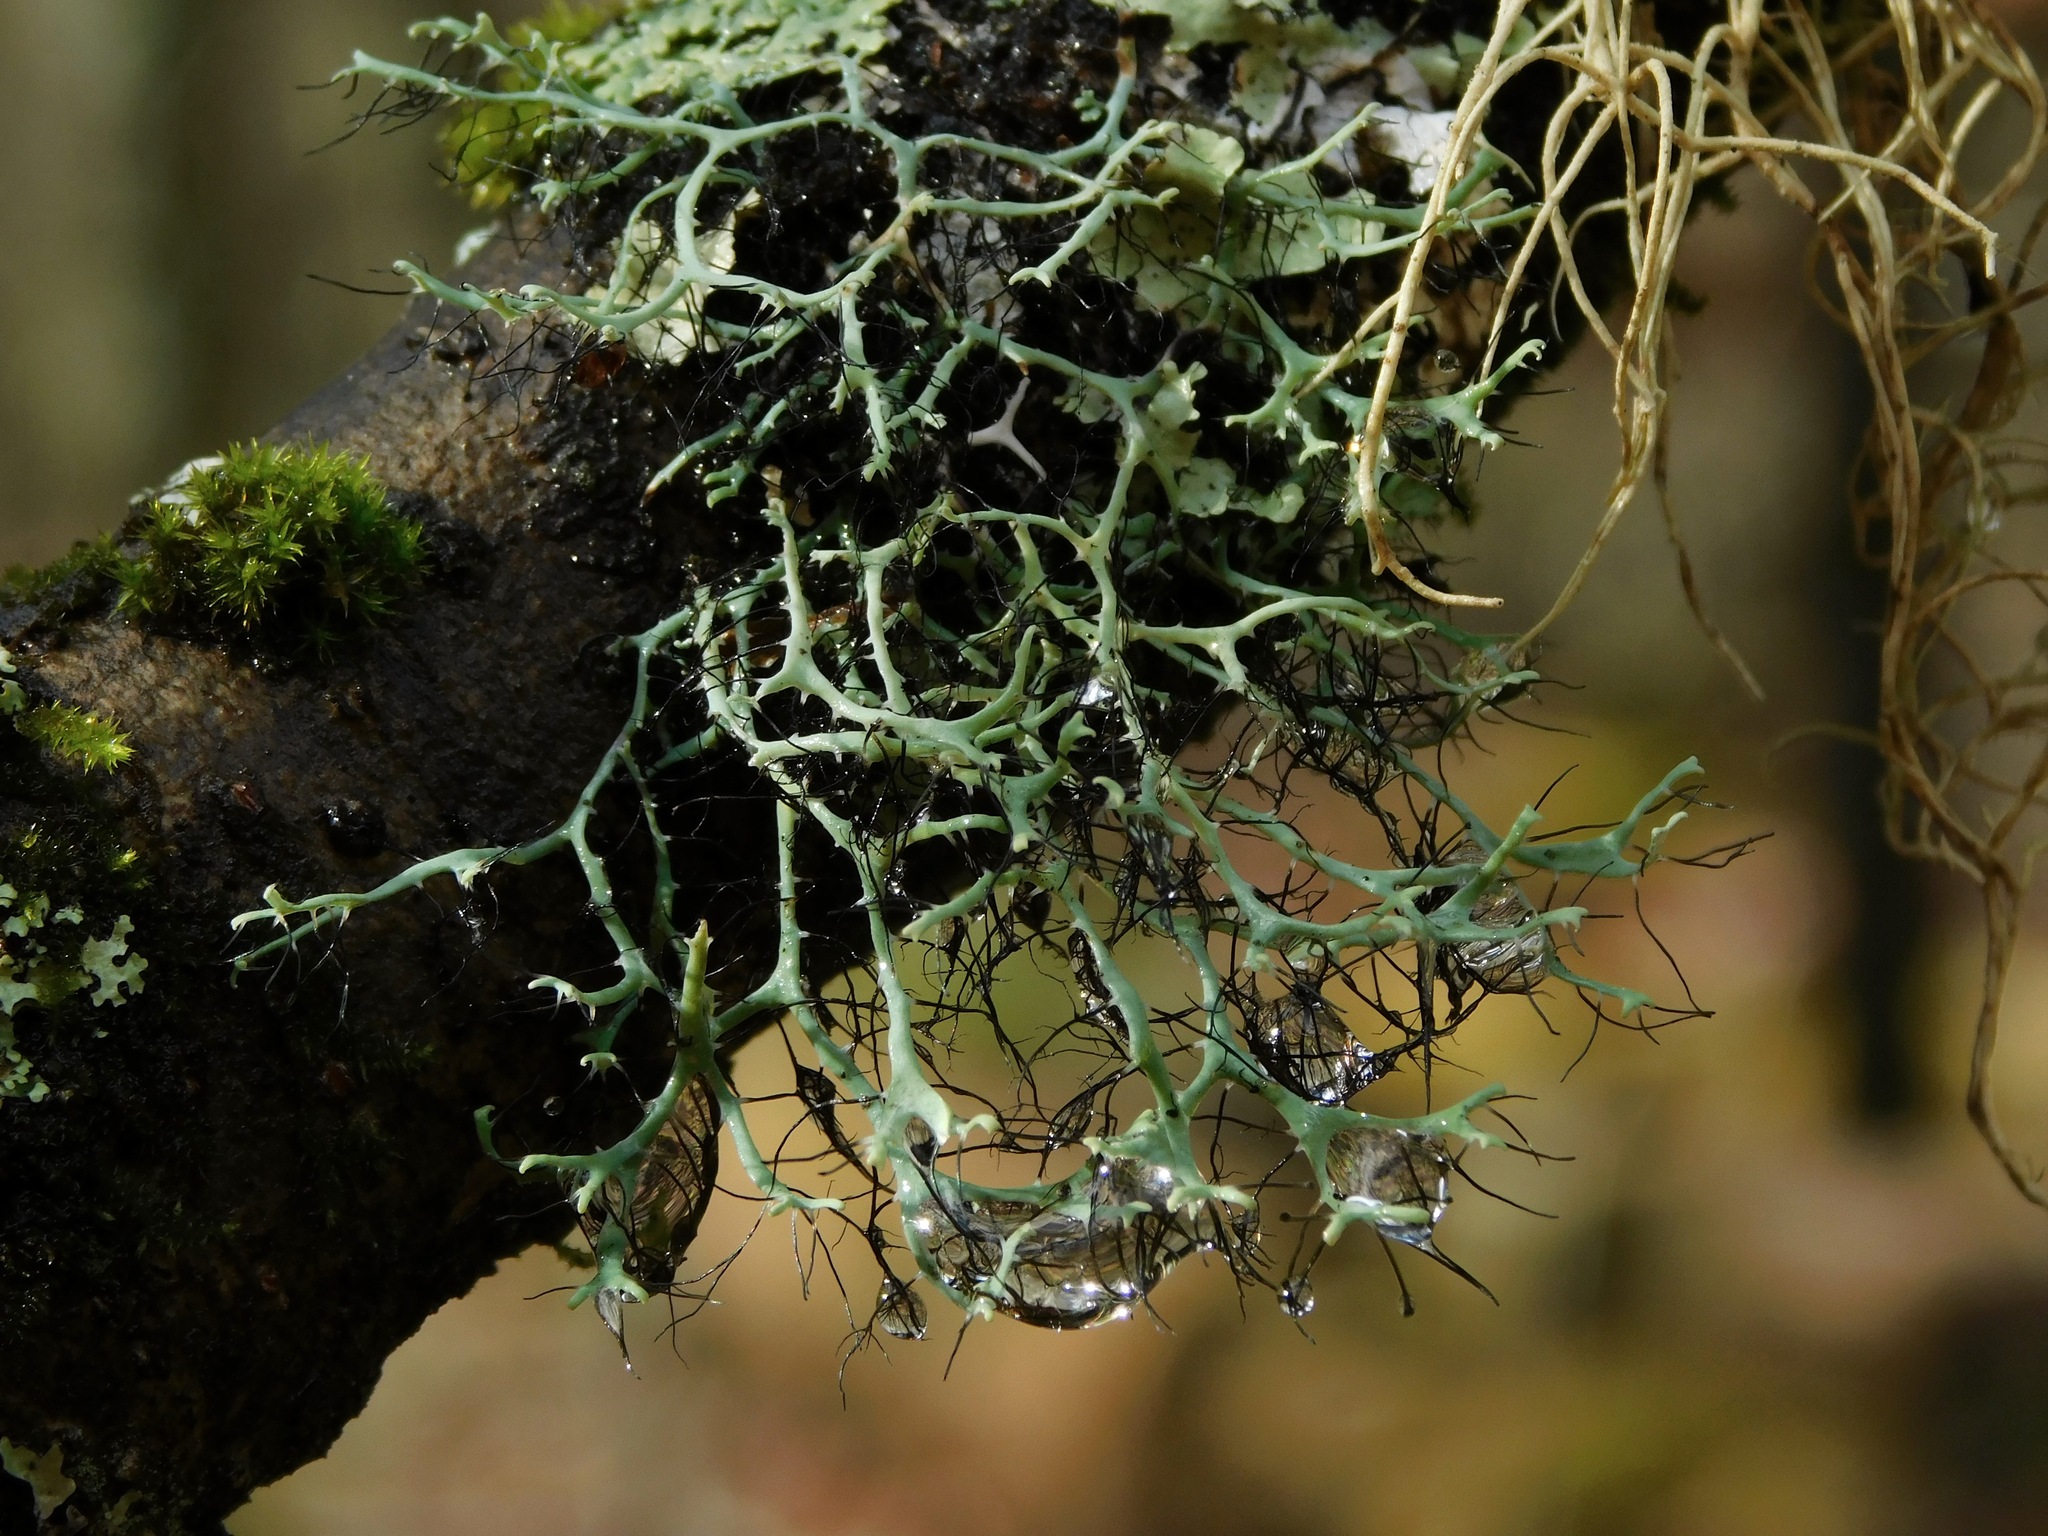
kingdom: Fungi
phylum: Ascomycota
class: Lecanoromycetes
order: Caliciales
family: Physciaceae
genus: Leucodermia
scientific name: Leucodermia leucomelos
